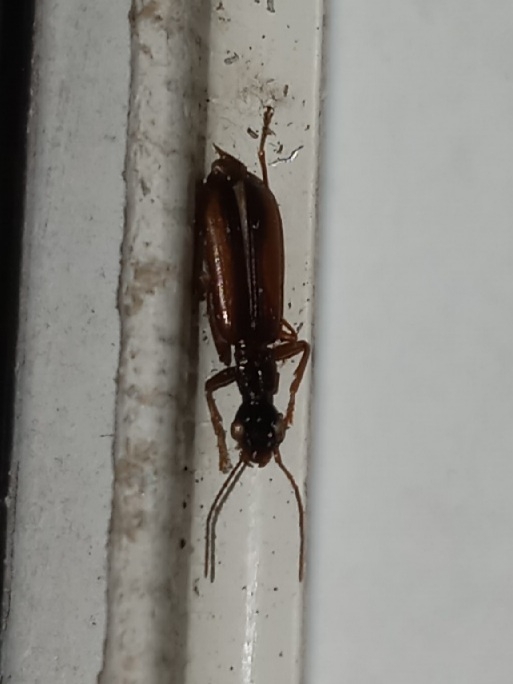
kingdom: Animalia
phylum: Arthropoda
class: Insecta
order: Coleoptera
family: Carabidae
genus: Leptotrachelus
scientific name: Leptotrachelus dorsalis
